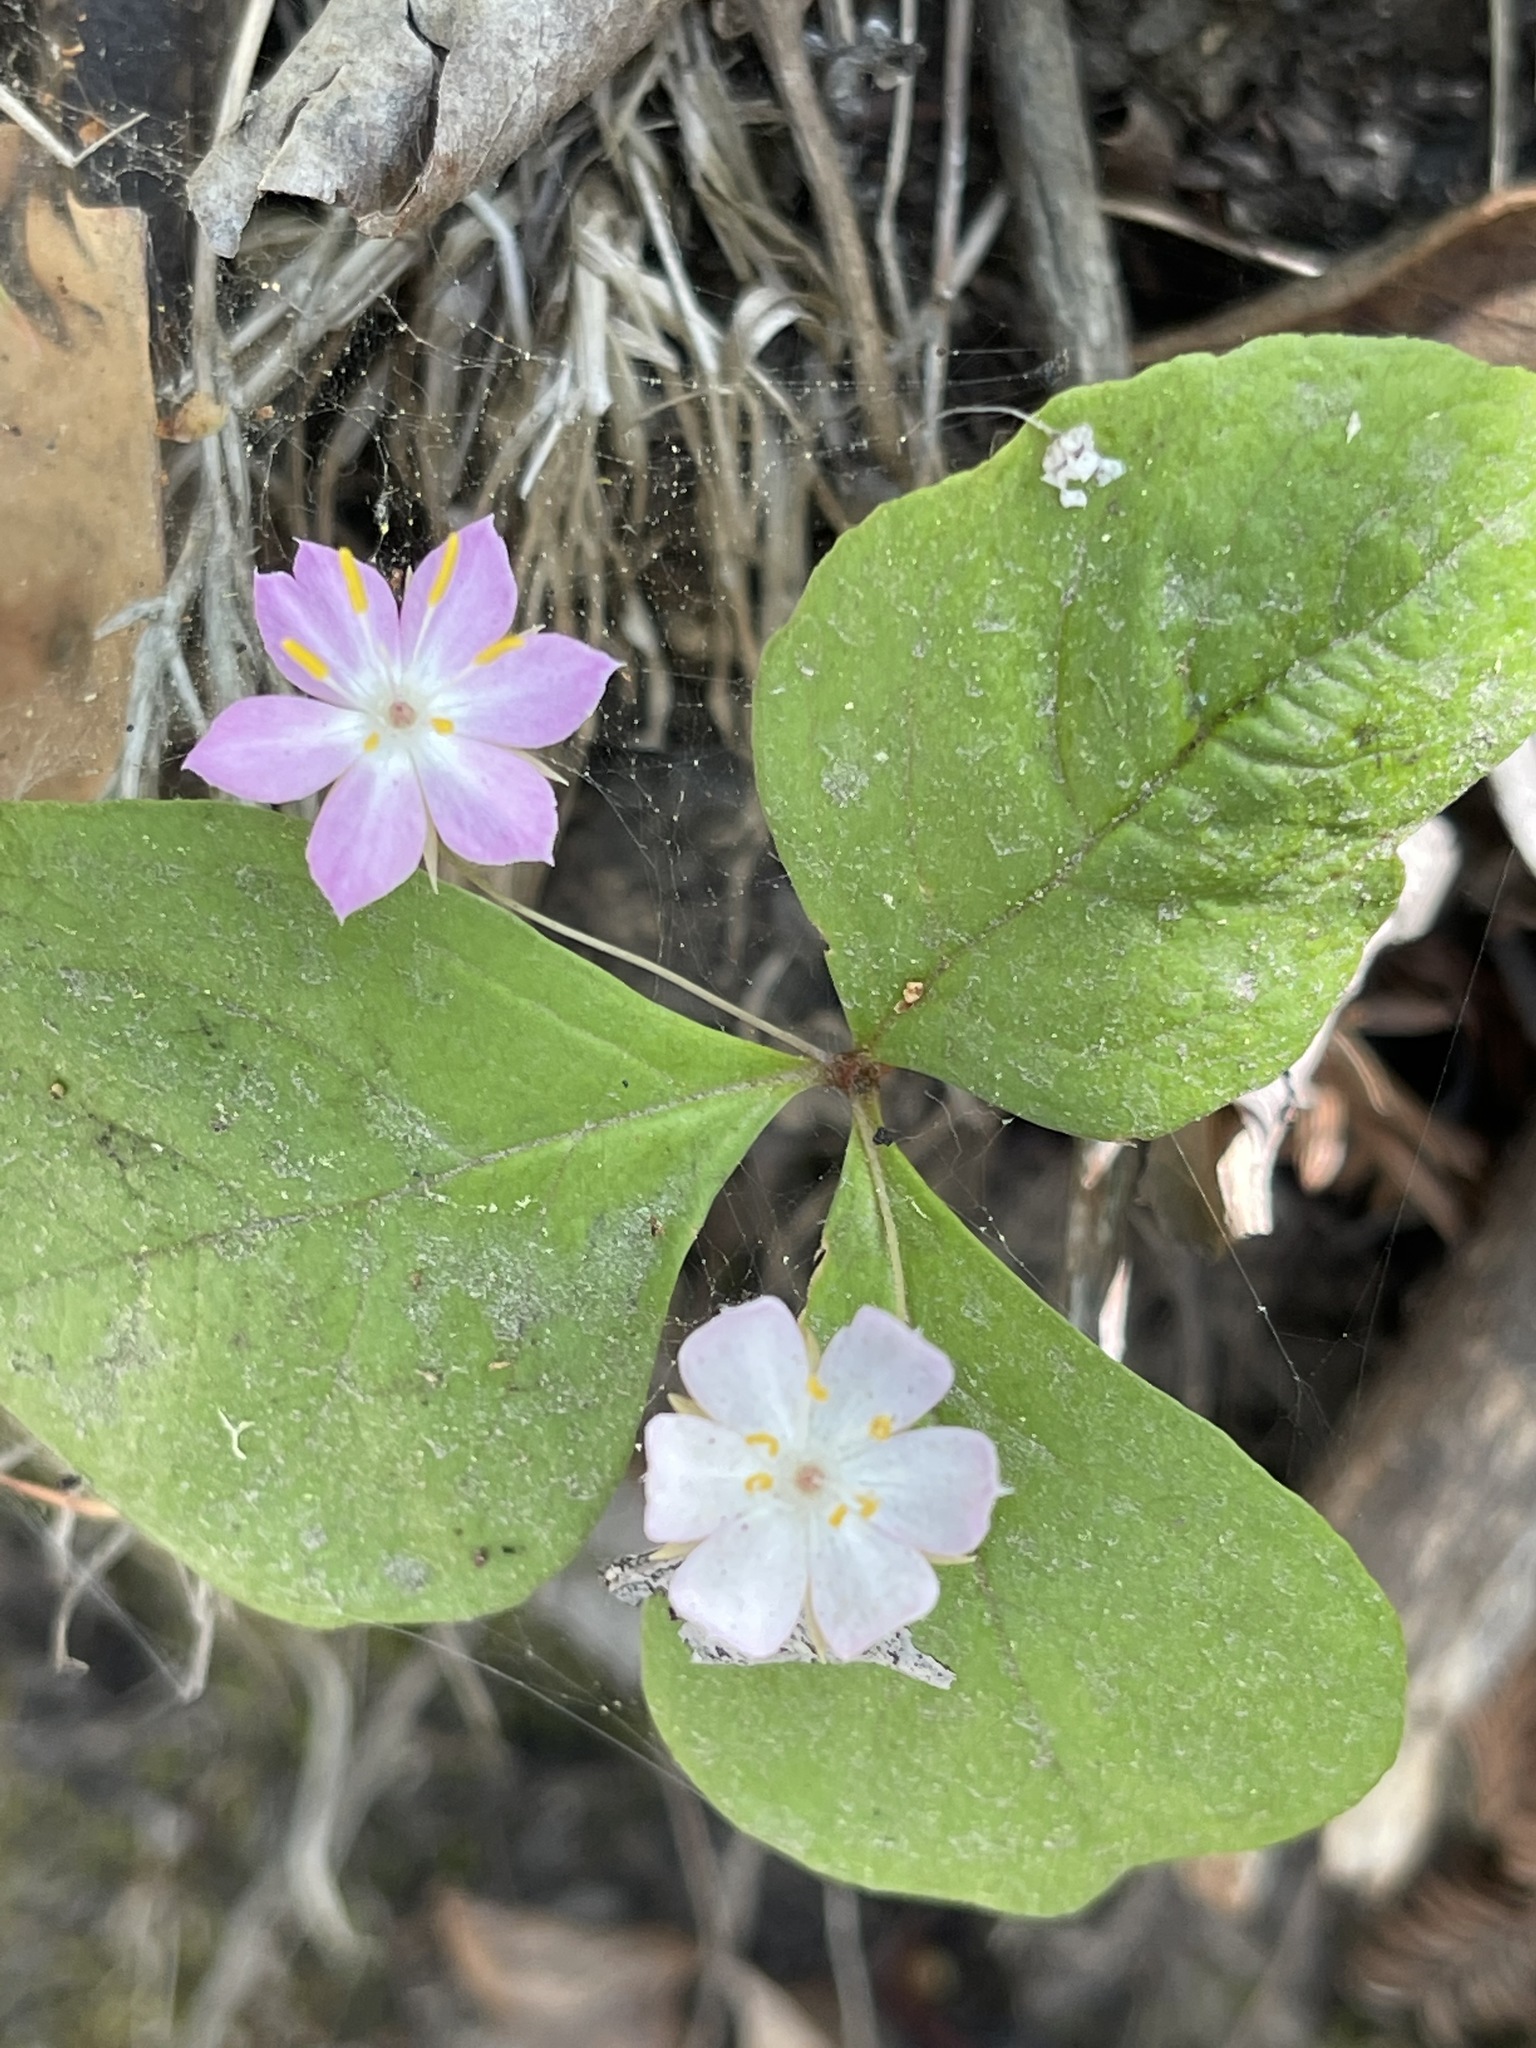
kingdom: Plantae
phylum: Tracheophyta
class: Magnoliopsida
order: Ericales
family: Primulaceae
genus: Lysimachia
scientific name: Lysimachia latifolia
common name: Pacific starflower
